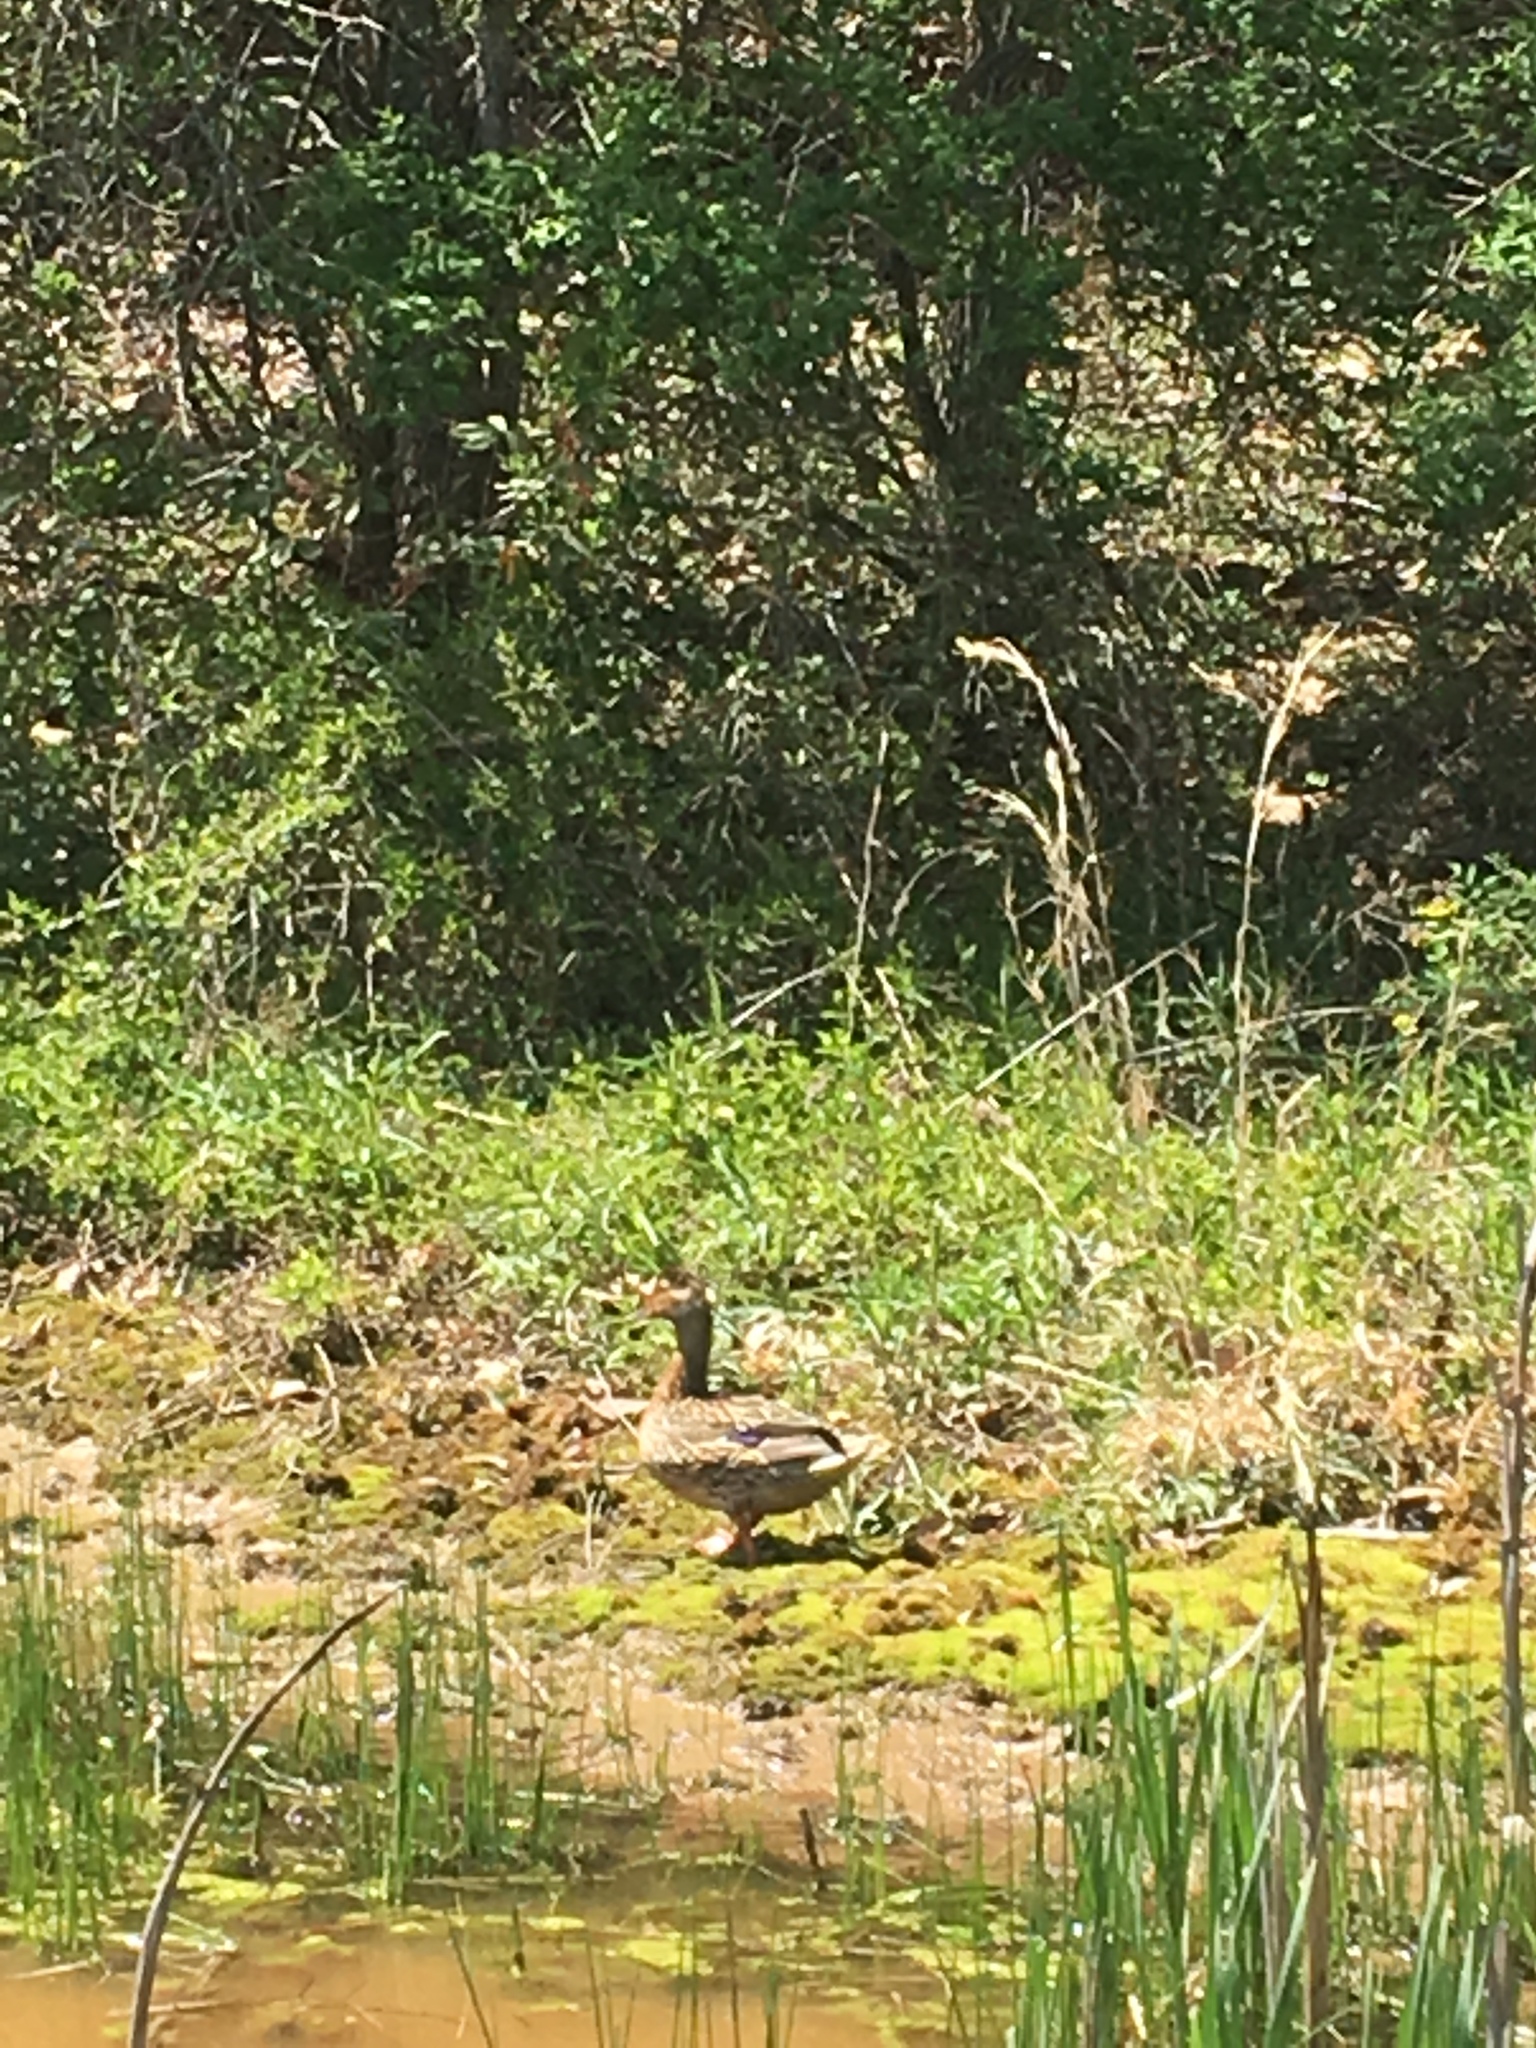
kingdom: Animalia
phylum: Chordata
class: Aves
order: Anseriformes
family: Anatidae
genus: Anas
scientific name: Anas platyrhynchos
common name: Mallard
